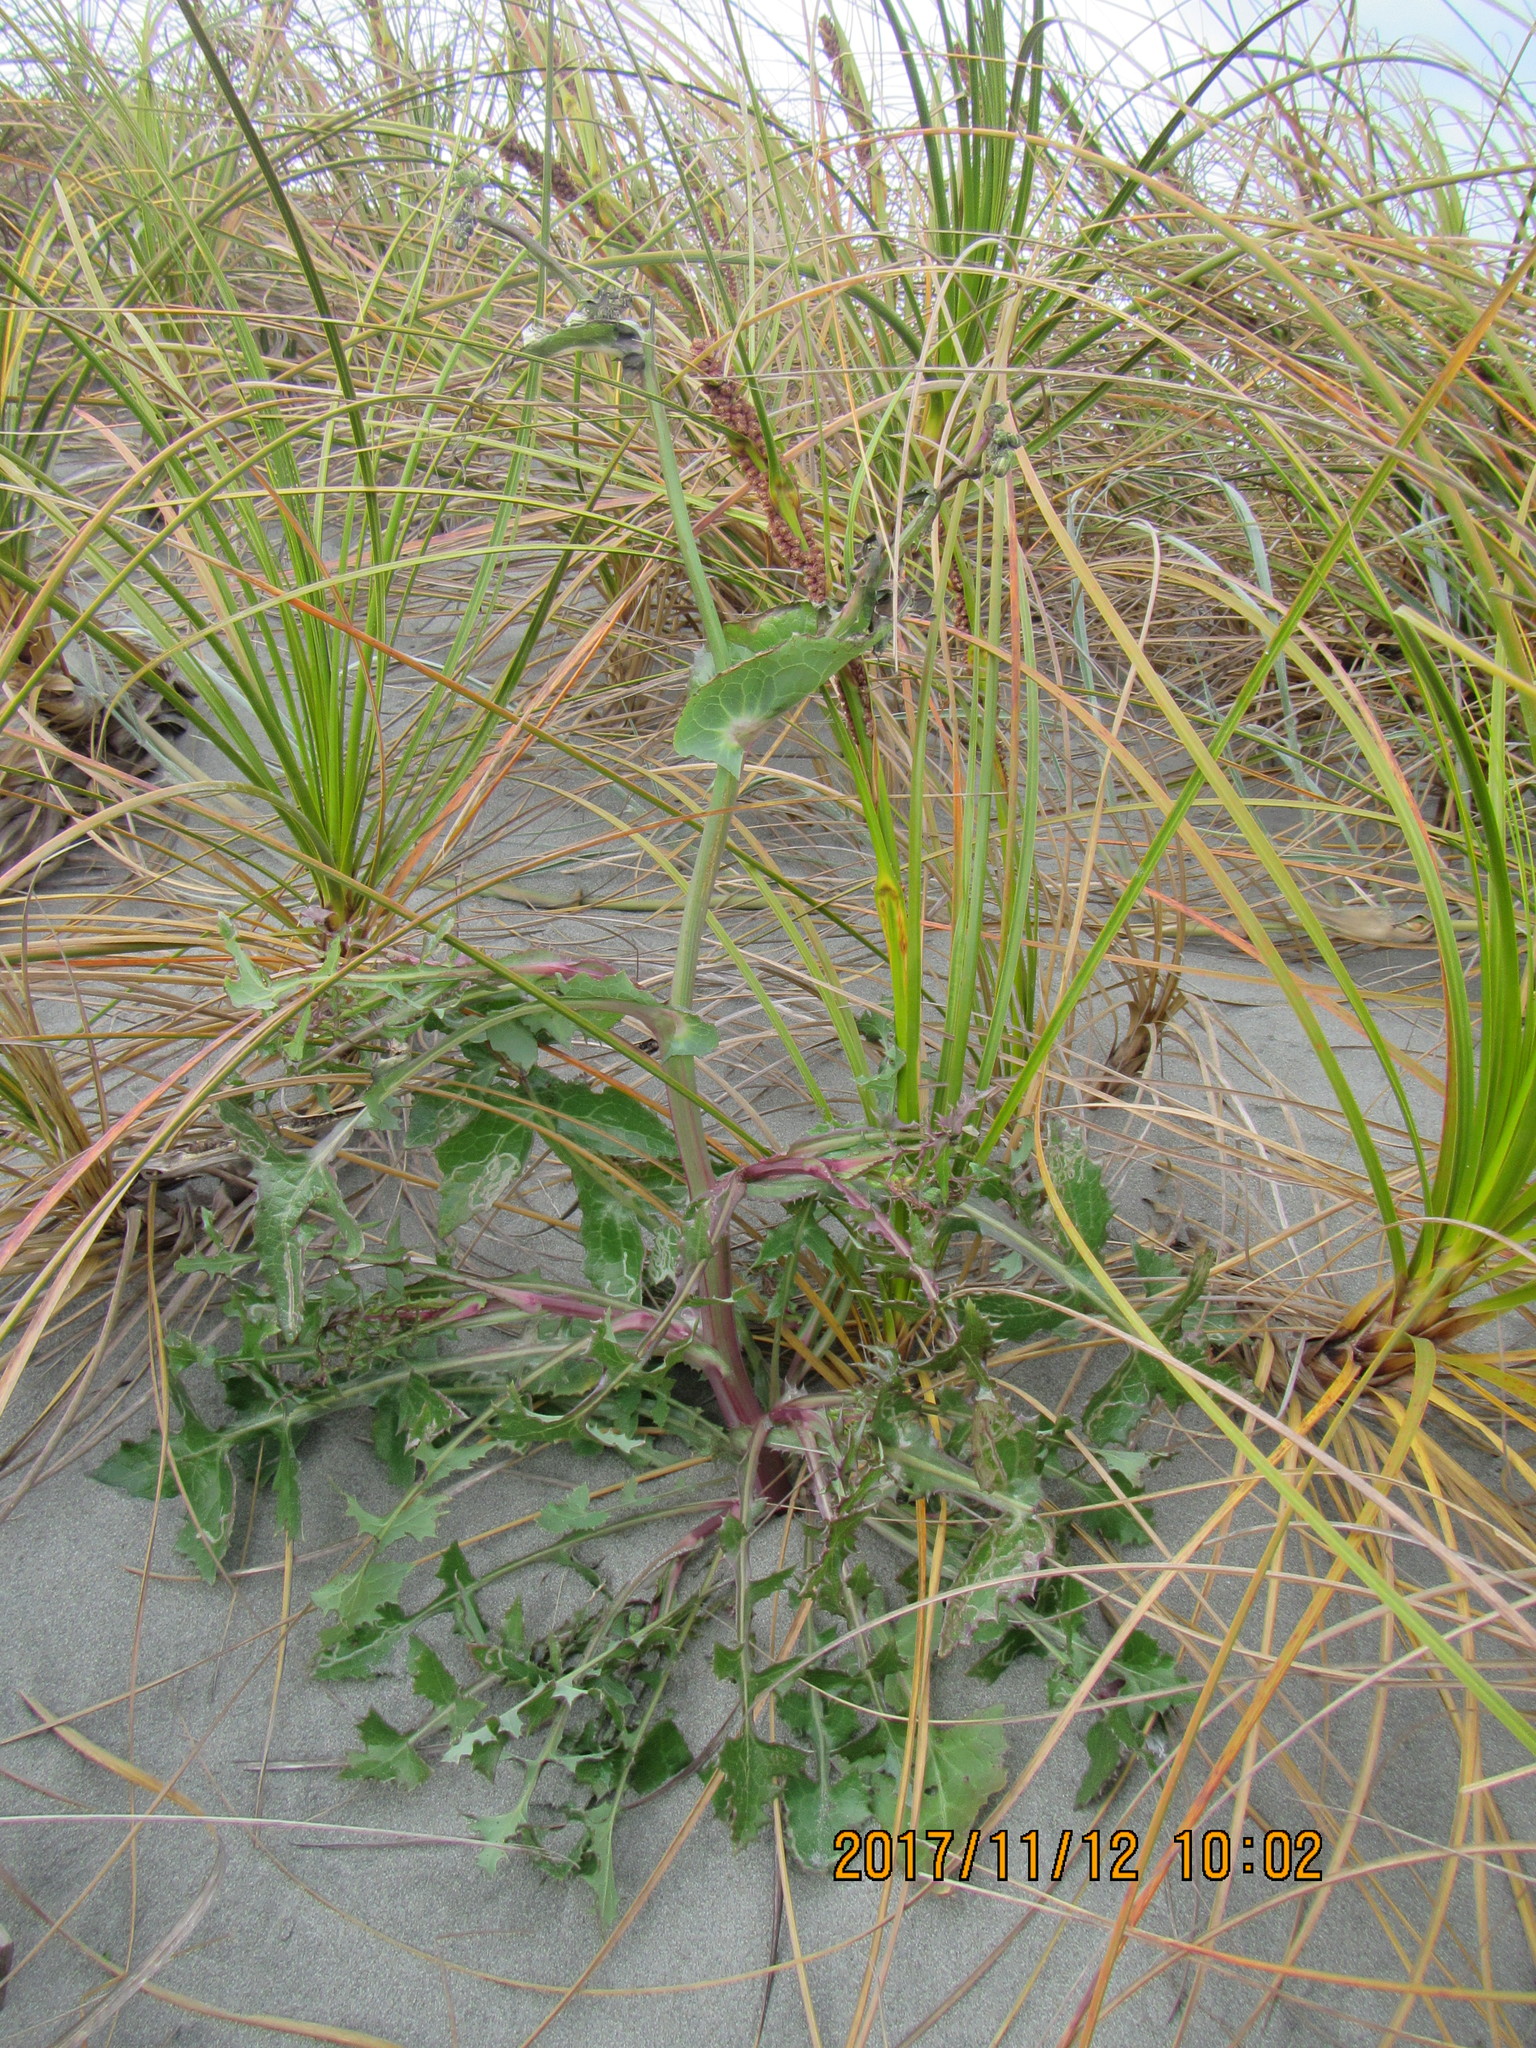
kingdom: Plantae
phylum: Tracheophyta
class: Magnoliopsida
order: Asterales
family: Asteraceae
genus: Sonchus
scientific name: Sonchus oleraceus
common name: Common sowthistle
